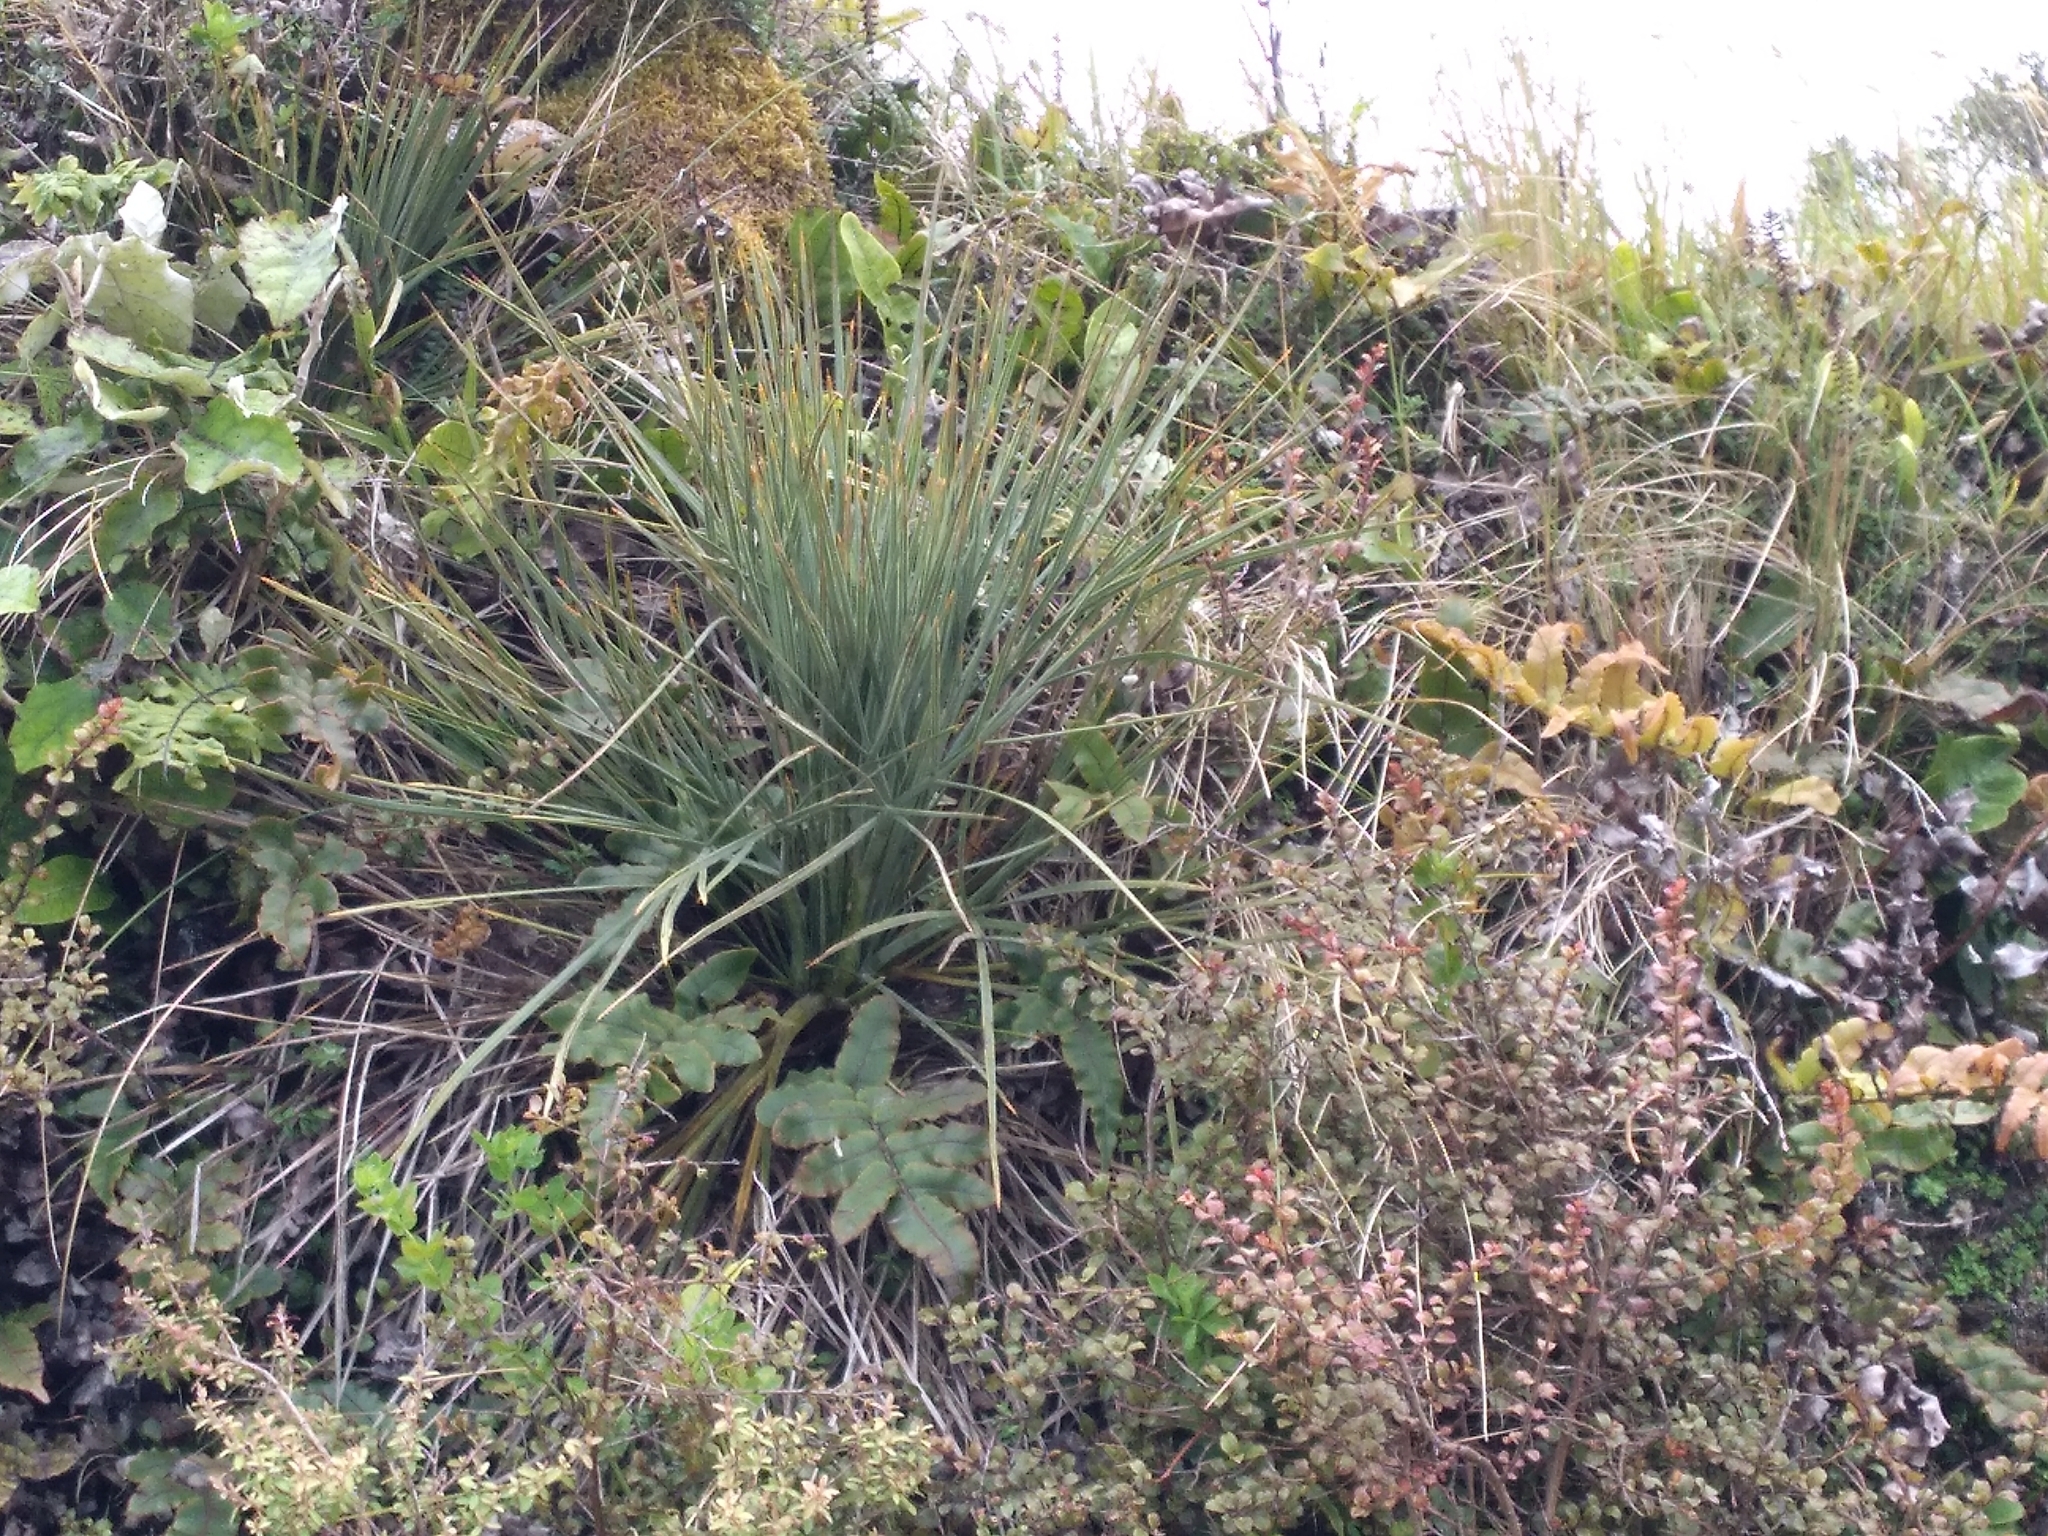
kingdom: Plantae
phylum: Tracheophyta
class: Magnoliopsida
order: Apiales
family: Apiaceae
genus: Aciphylla
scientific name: Aciphylla squarrosa
